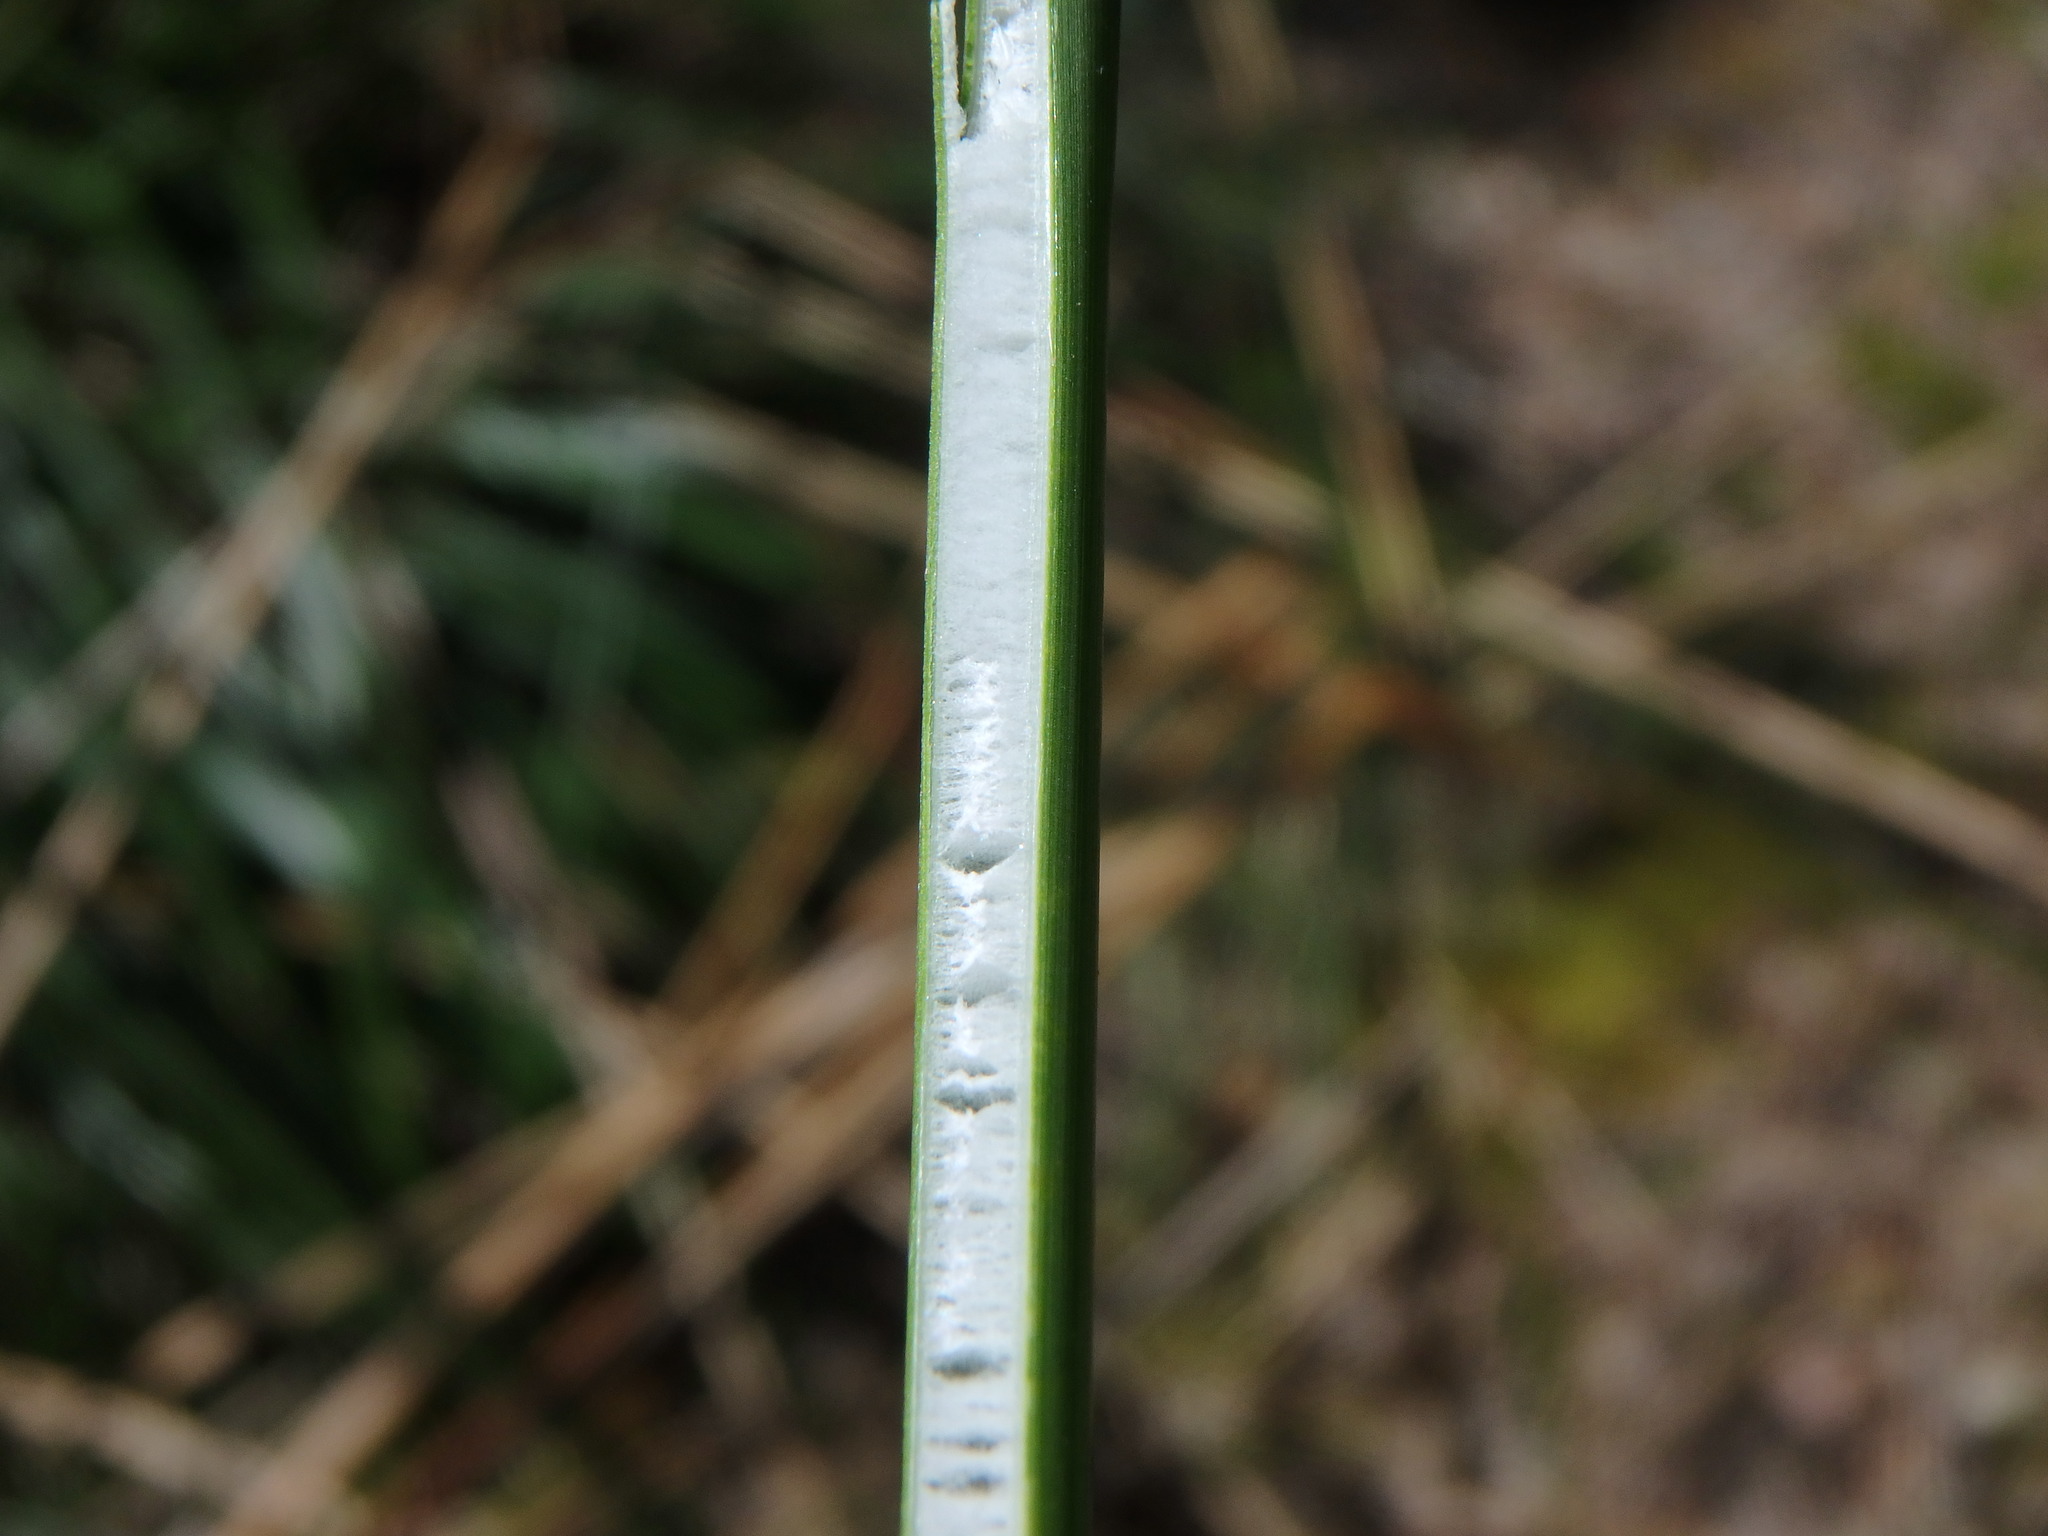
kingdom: Plantae
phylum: Tracheophyta
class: Liliopsida
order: Poales
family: Cyperaceae
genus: Scirpoides
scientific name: Scirpoides holoschoenus
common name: Round-headed club-rush
